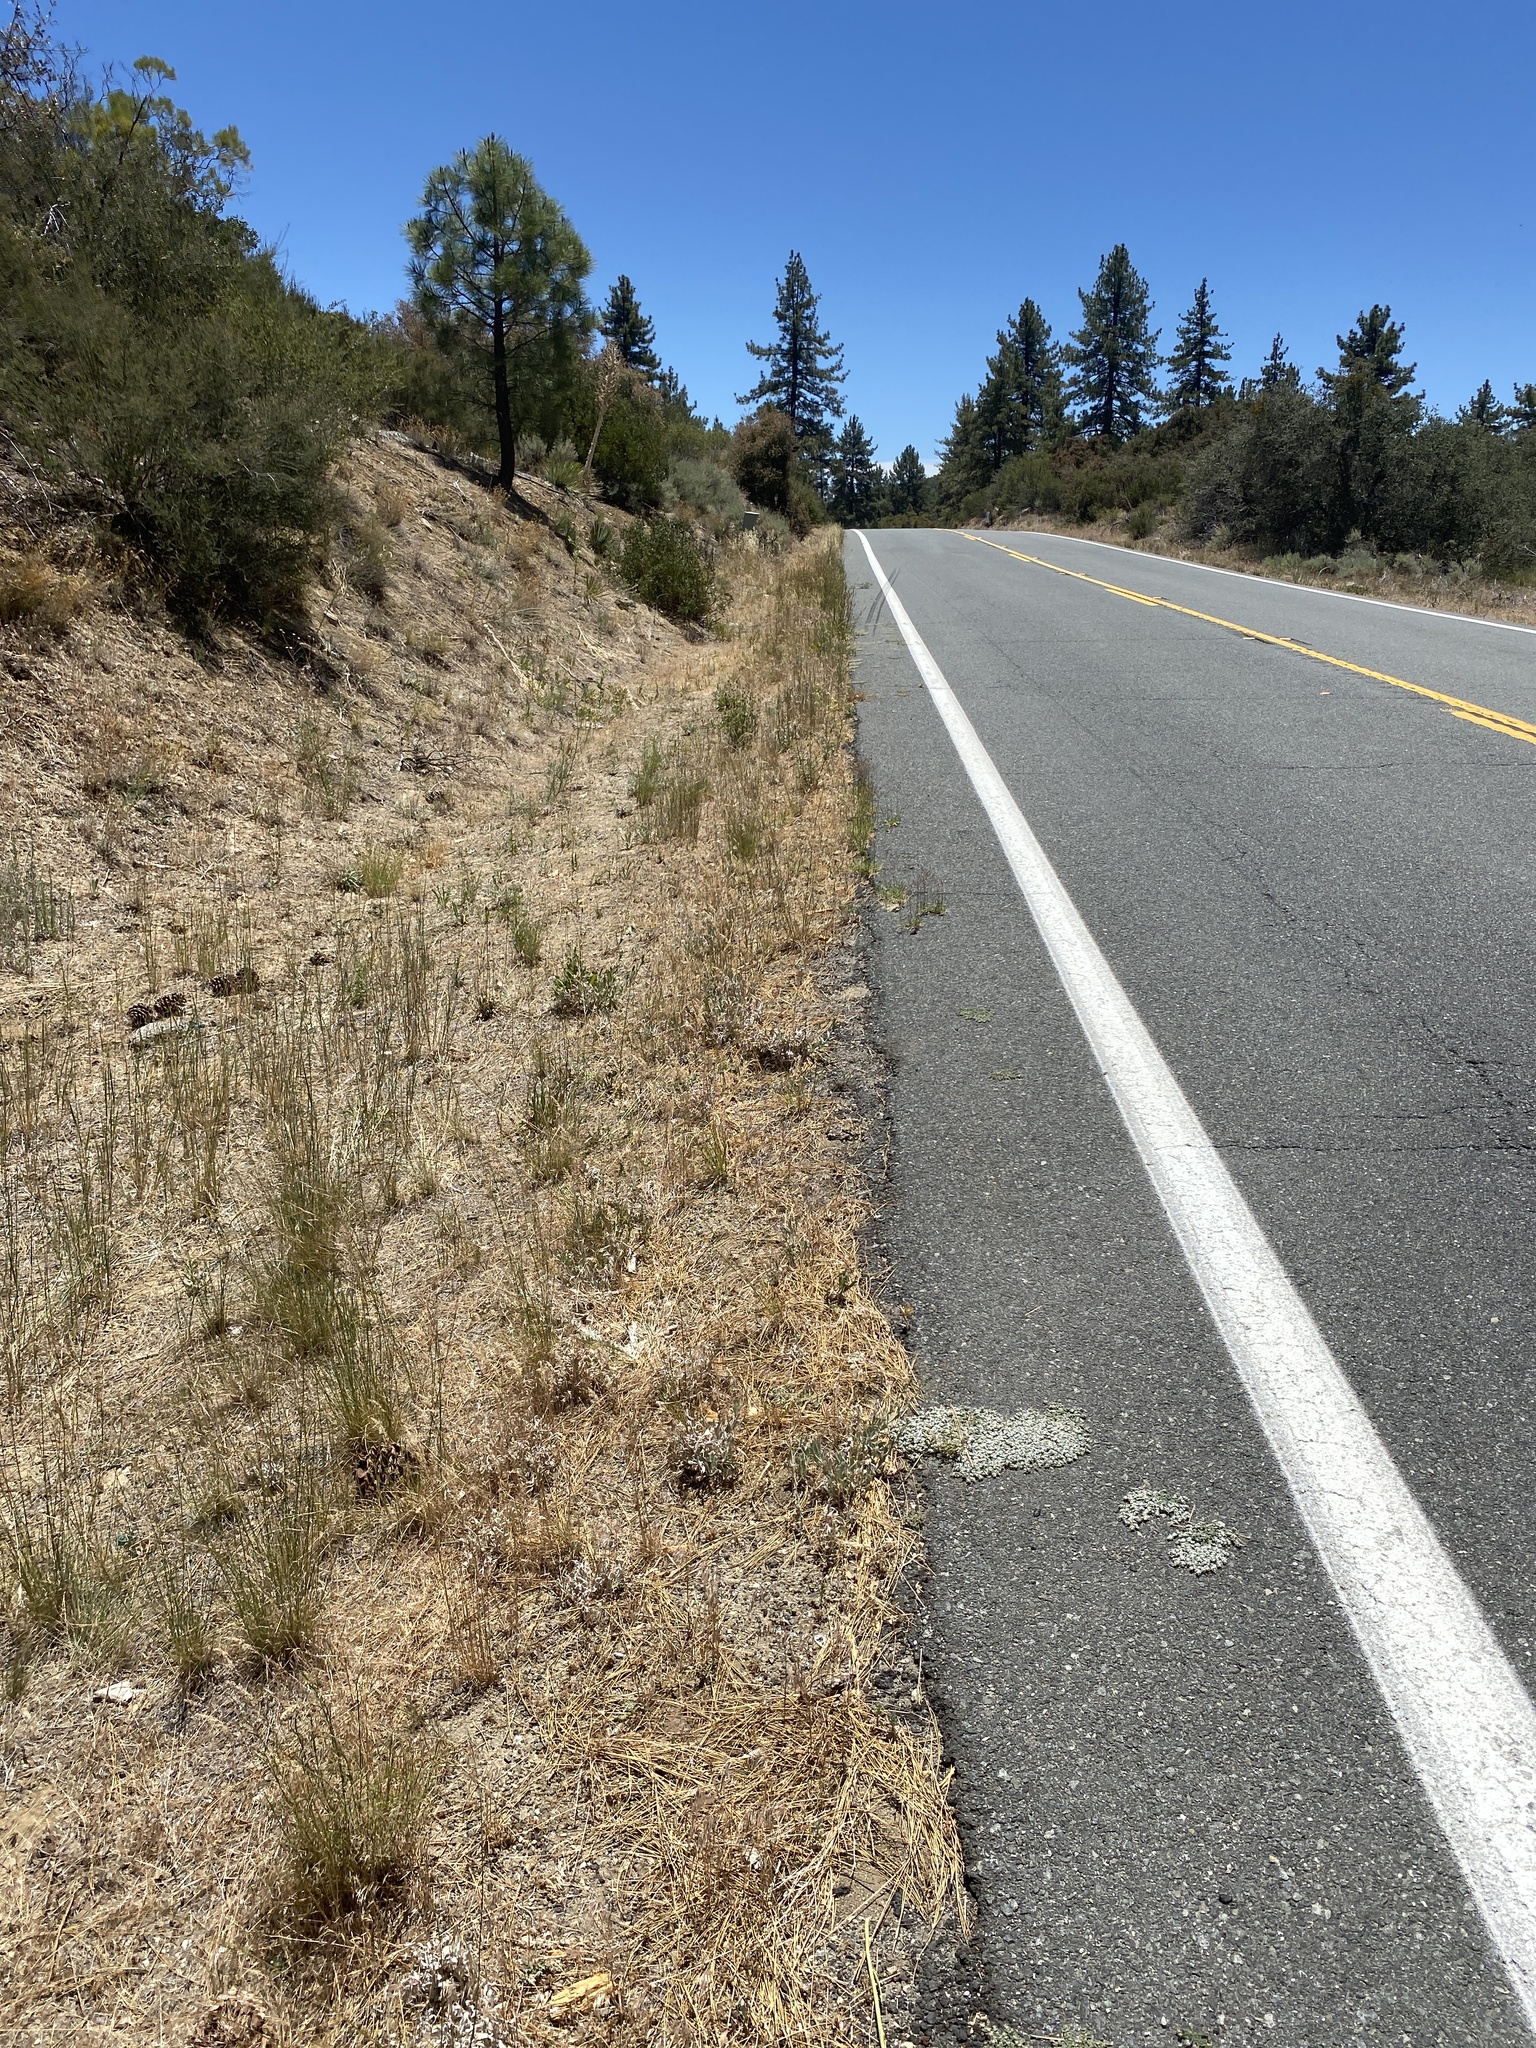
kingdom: Plantae
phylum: Tracheophyta
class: Magnoliopsida
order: Malpighiales
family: Euphorbiaceae
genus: Euphorbia
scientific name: Euphorbia albomarginata
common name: Whitemargin sandmat
